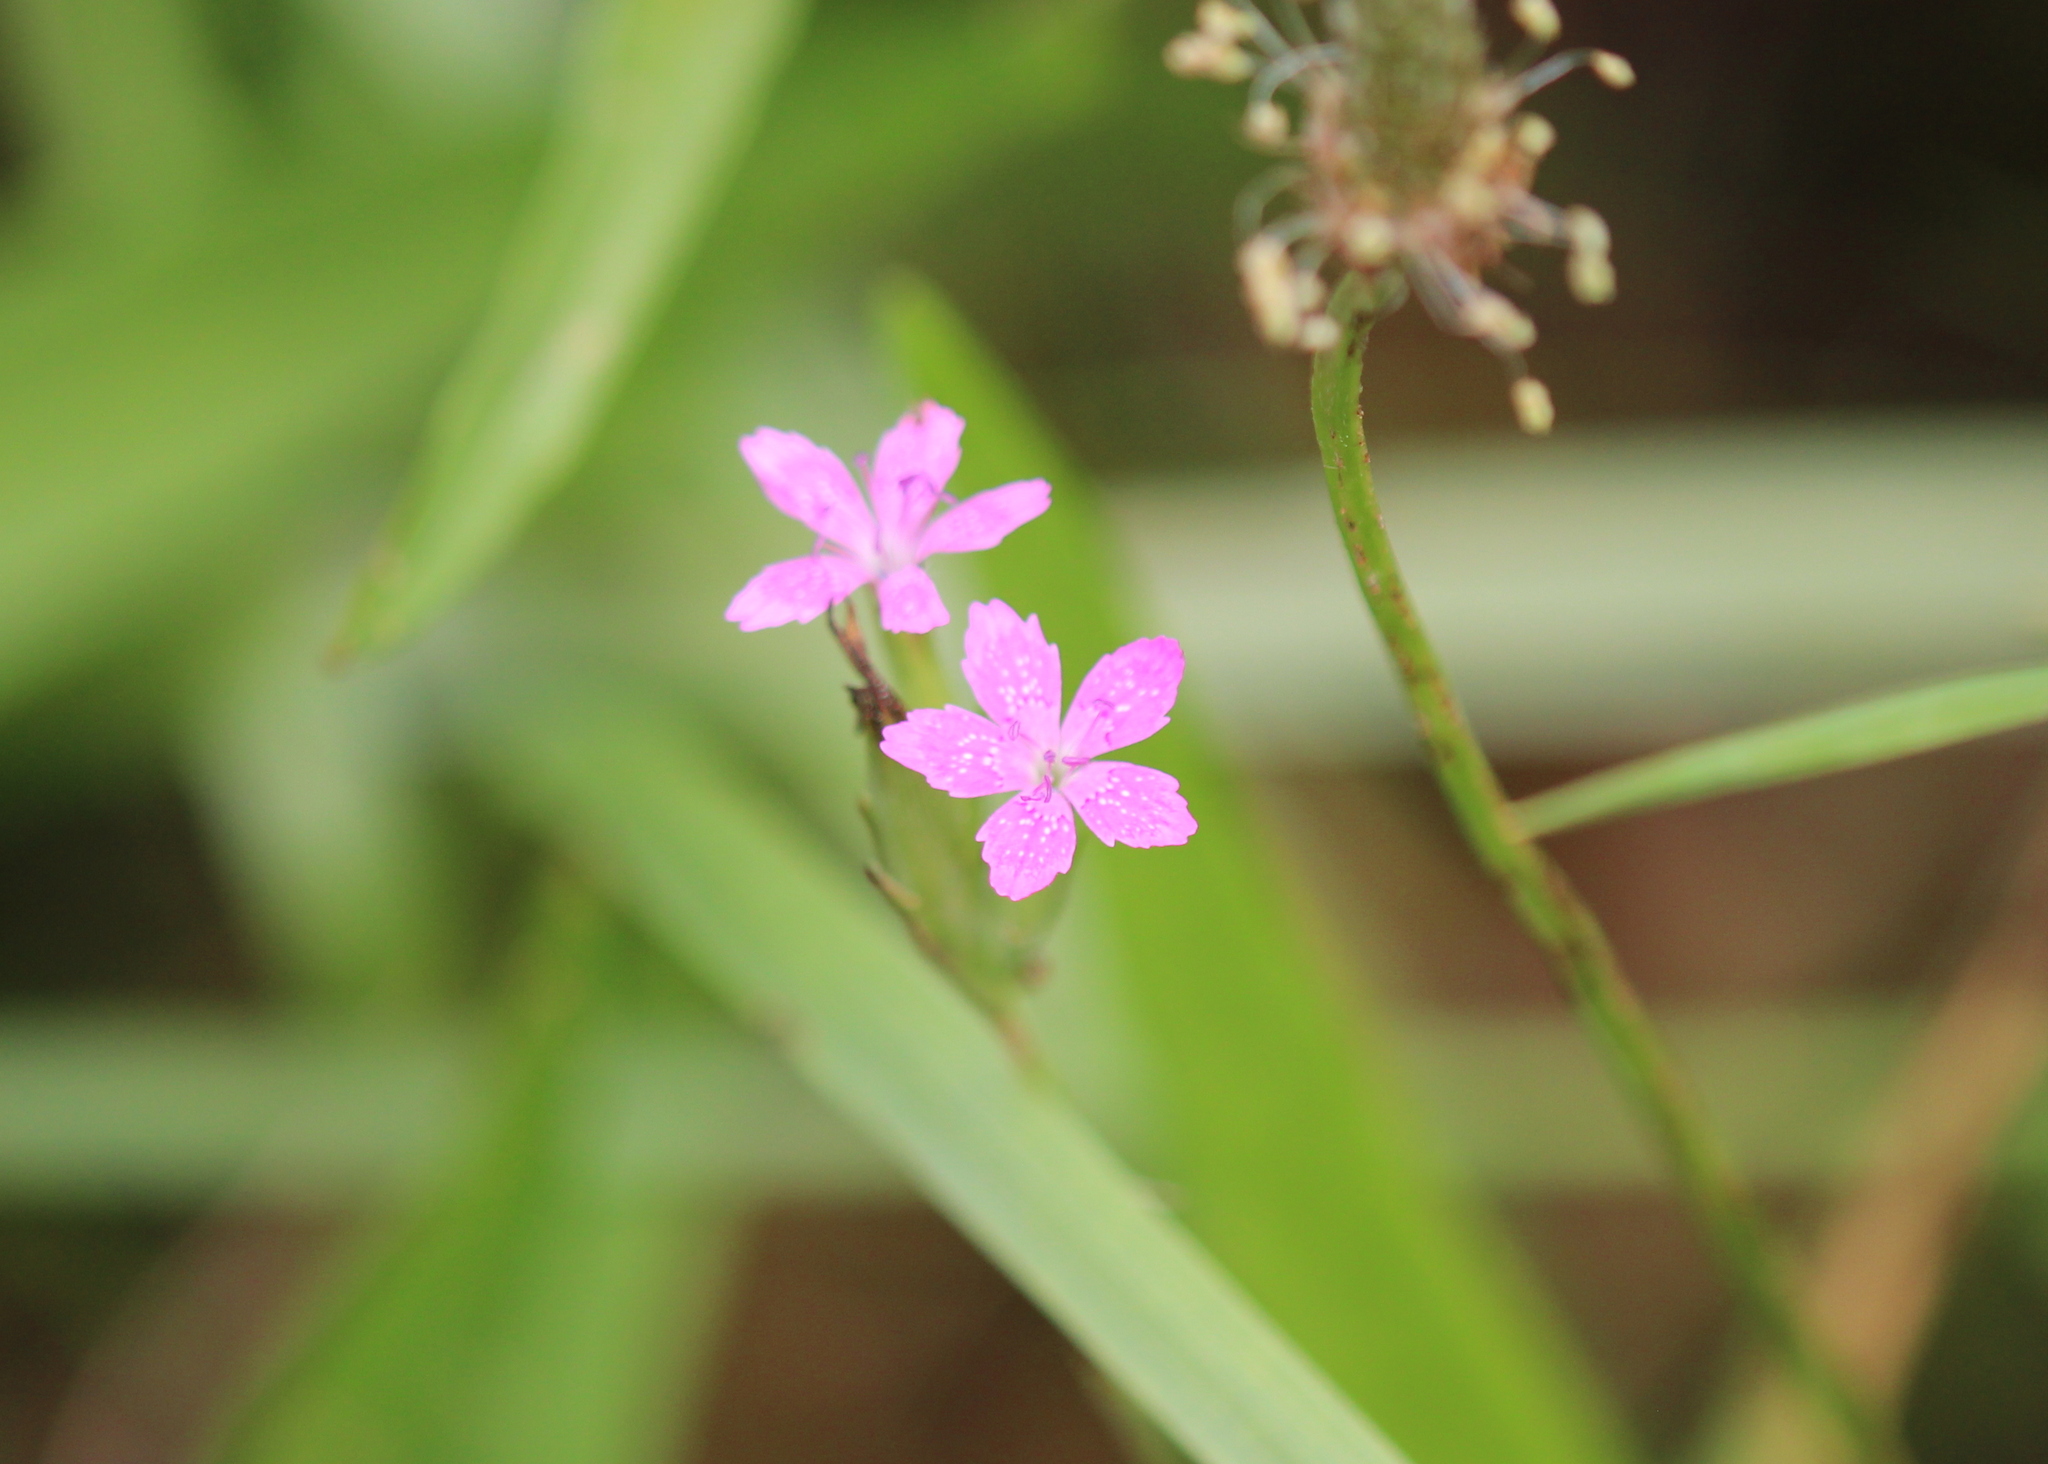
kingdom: Plantae
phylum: Tracheophyta
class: Magnoliopsida
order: Caryophyllales
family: Caryophyllaceae
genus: Dianthus
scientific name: Dianthus armeria
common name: Deptford pink
